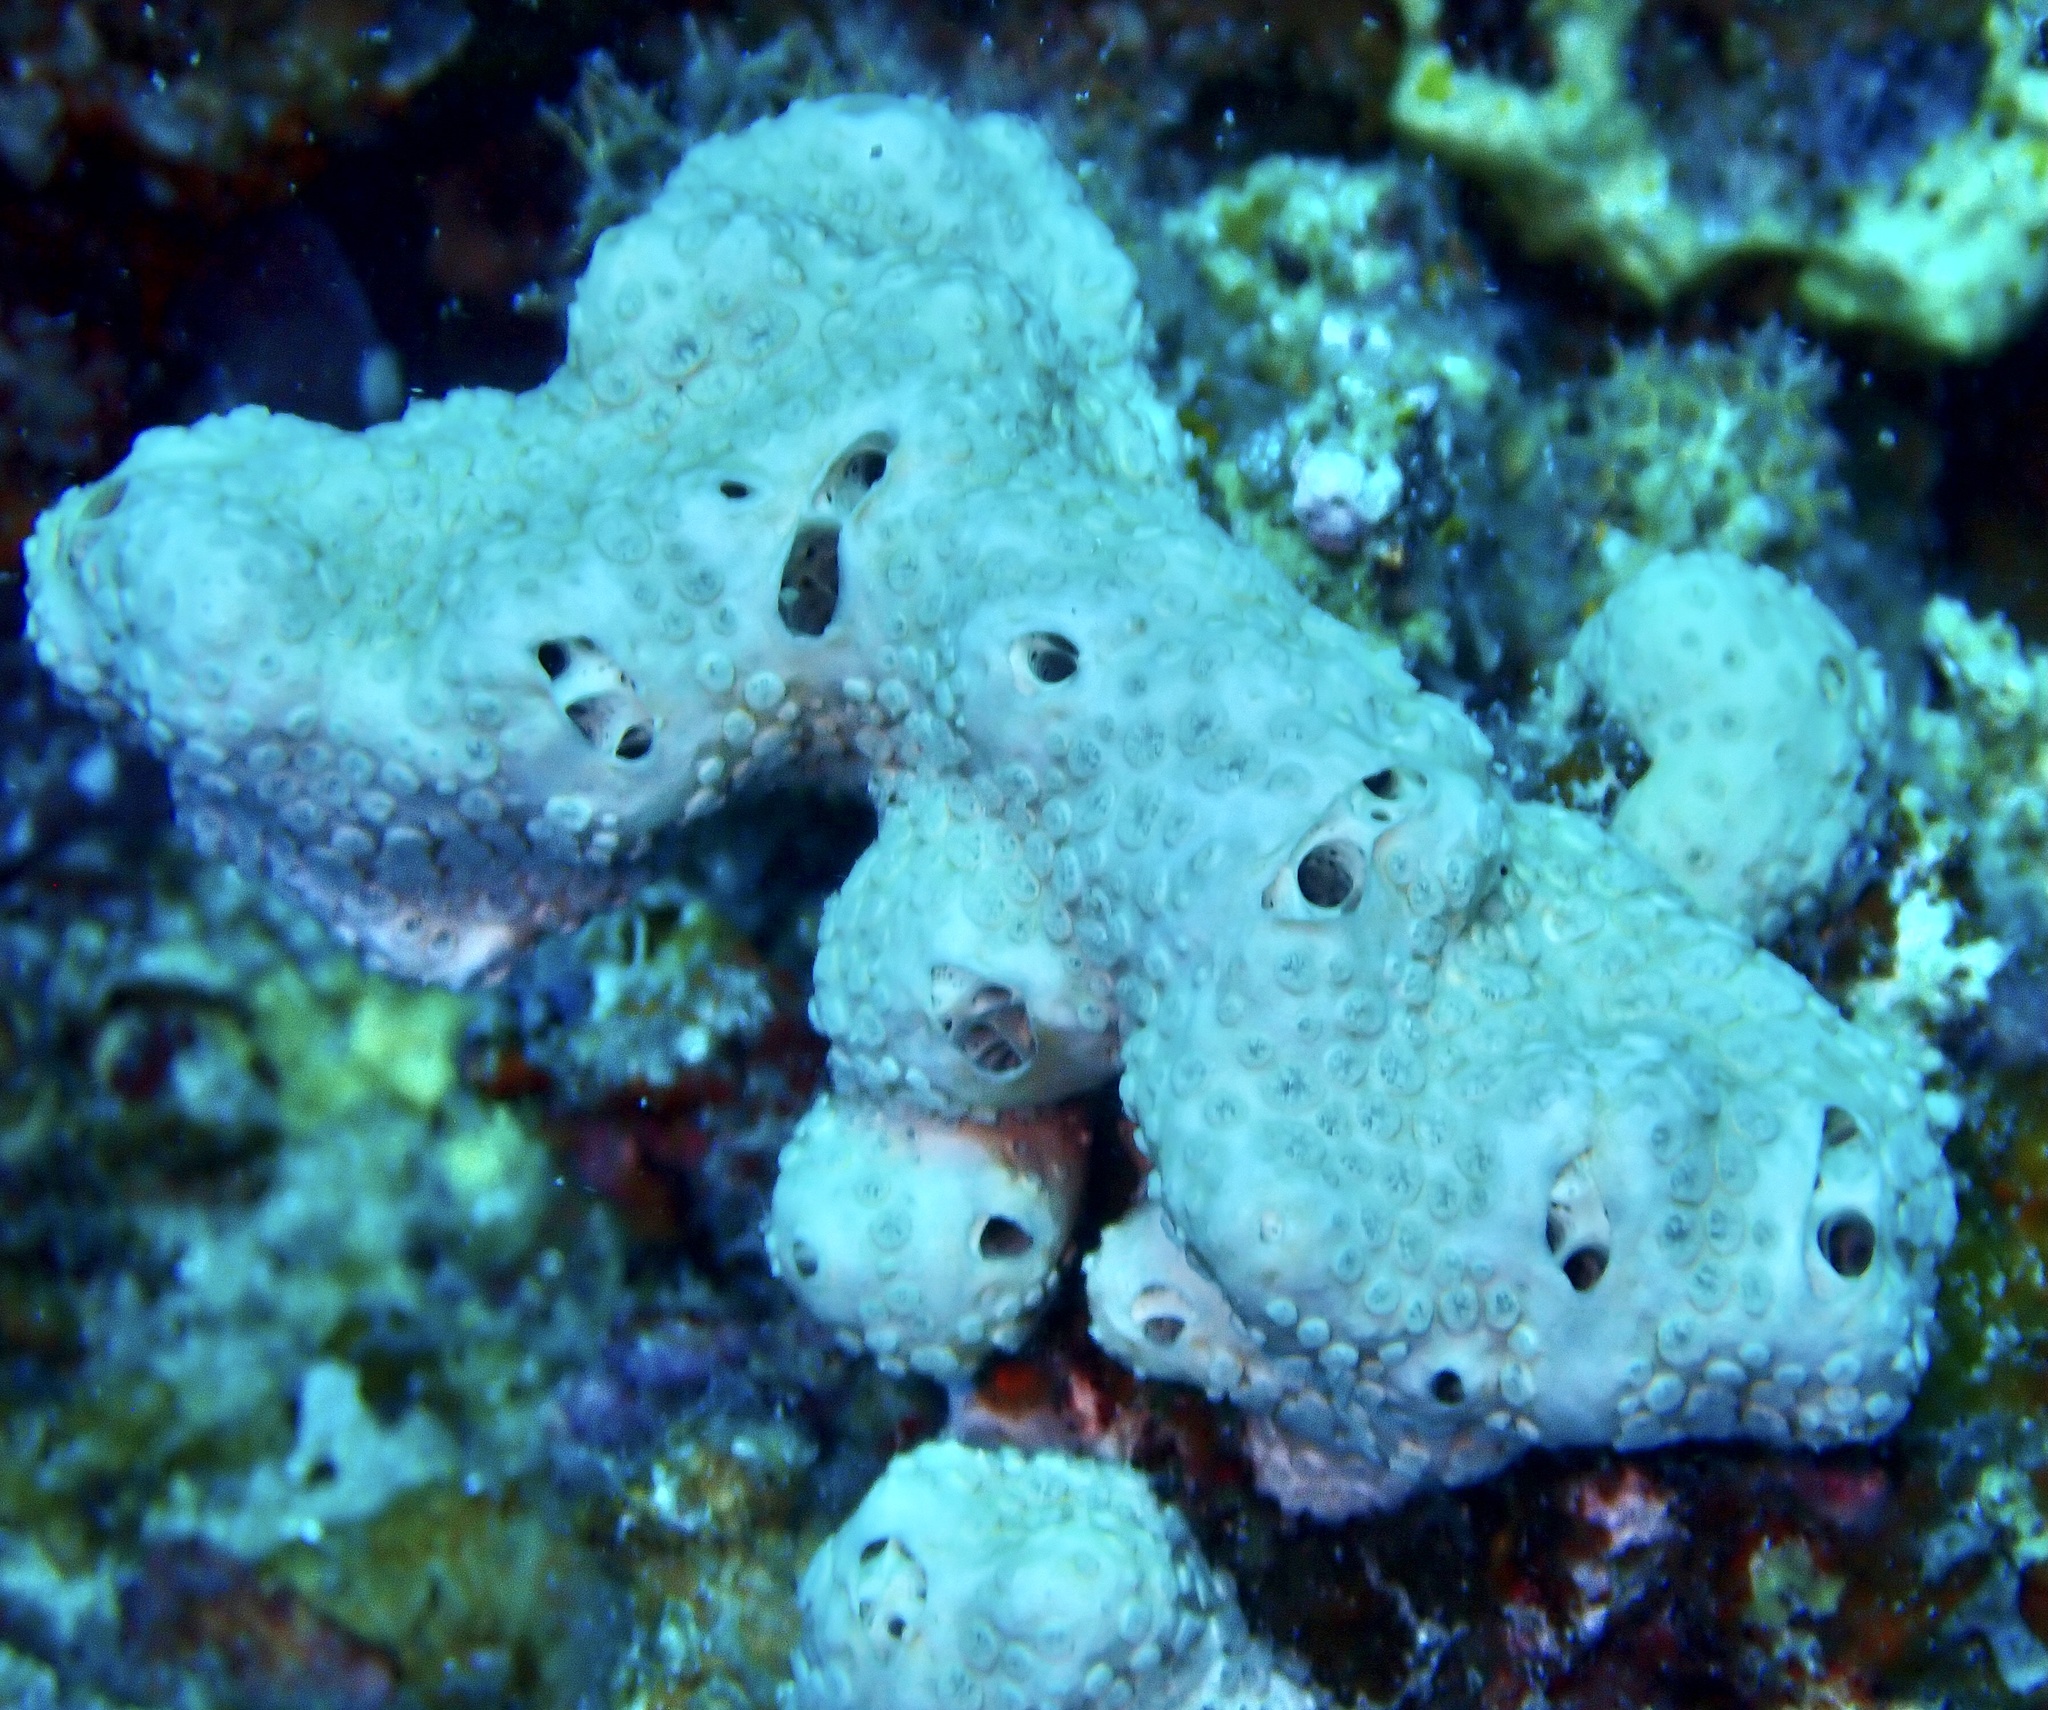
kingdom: Animalia
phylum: Porifera
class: Demospongiae
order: Poecilosclerida
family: Crellidae
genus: Crella
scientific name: Crella cyathophora
